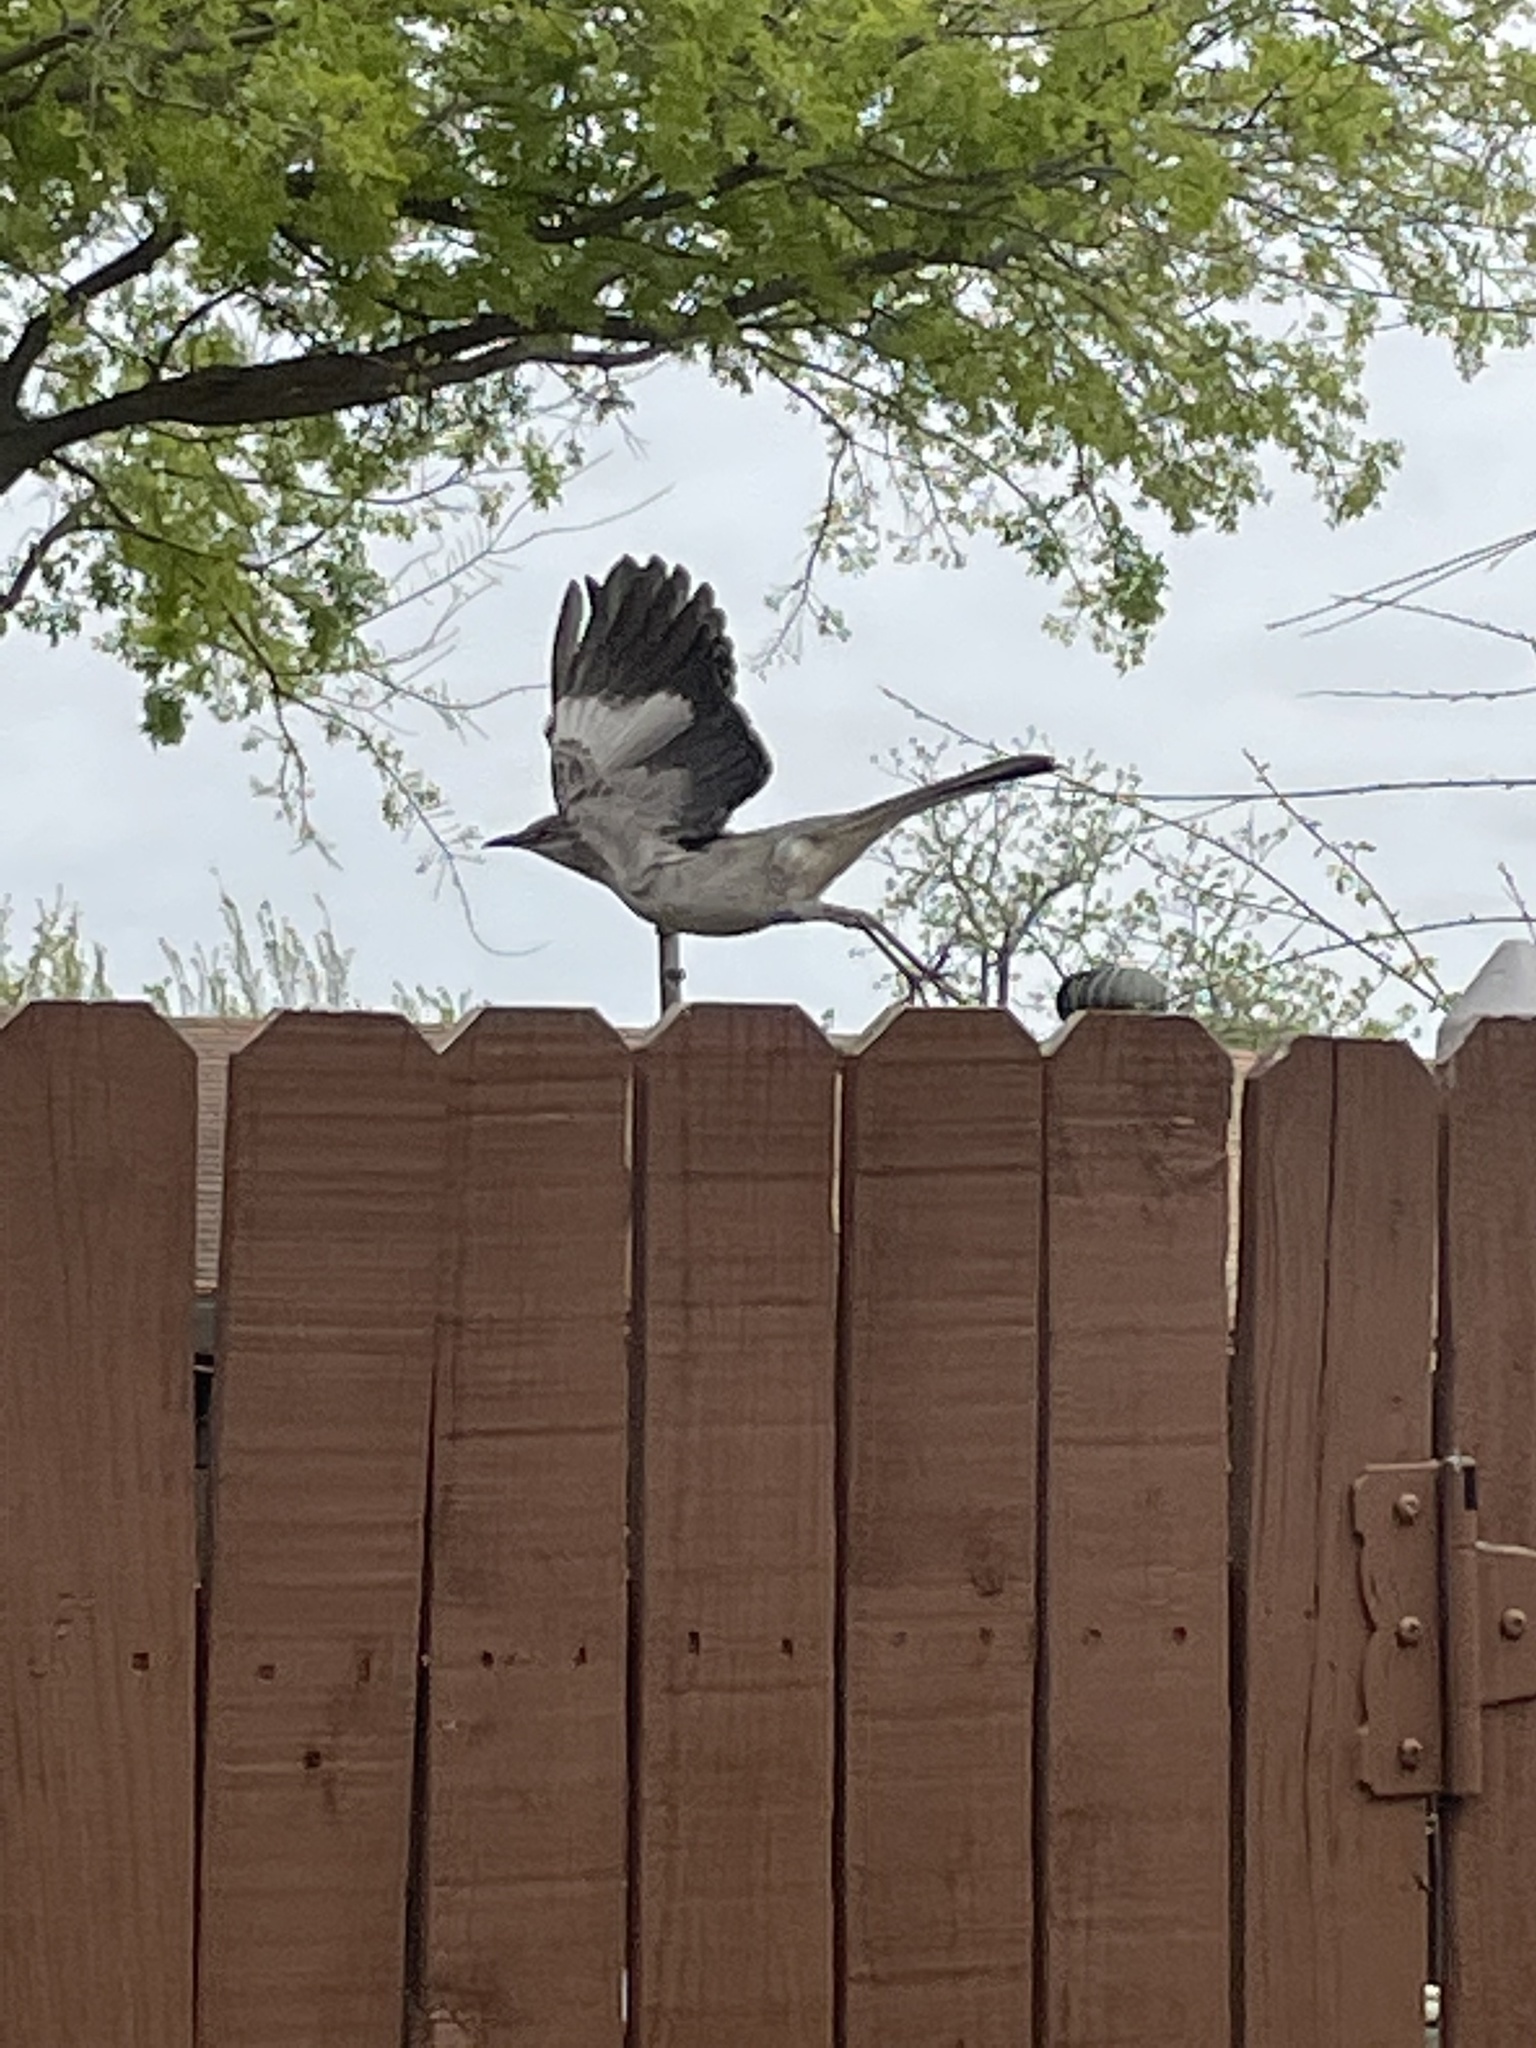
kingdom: Animalia
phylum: Chordata
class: Aves
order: Passeriformes
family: Mimidae
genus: Mimus
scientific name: Mimus polyglottos
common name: Northern mockingbird
